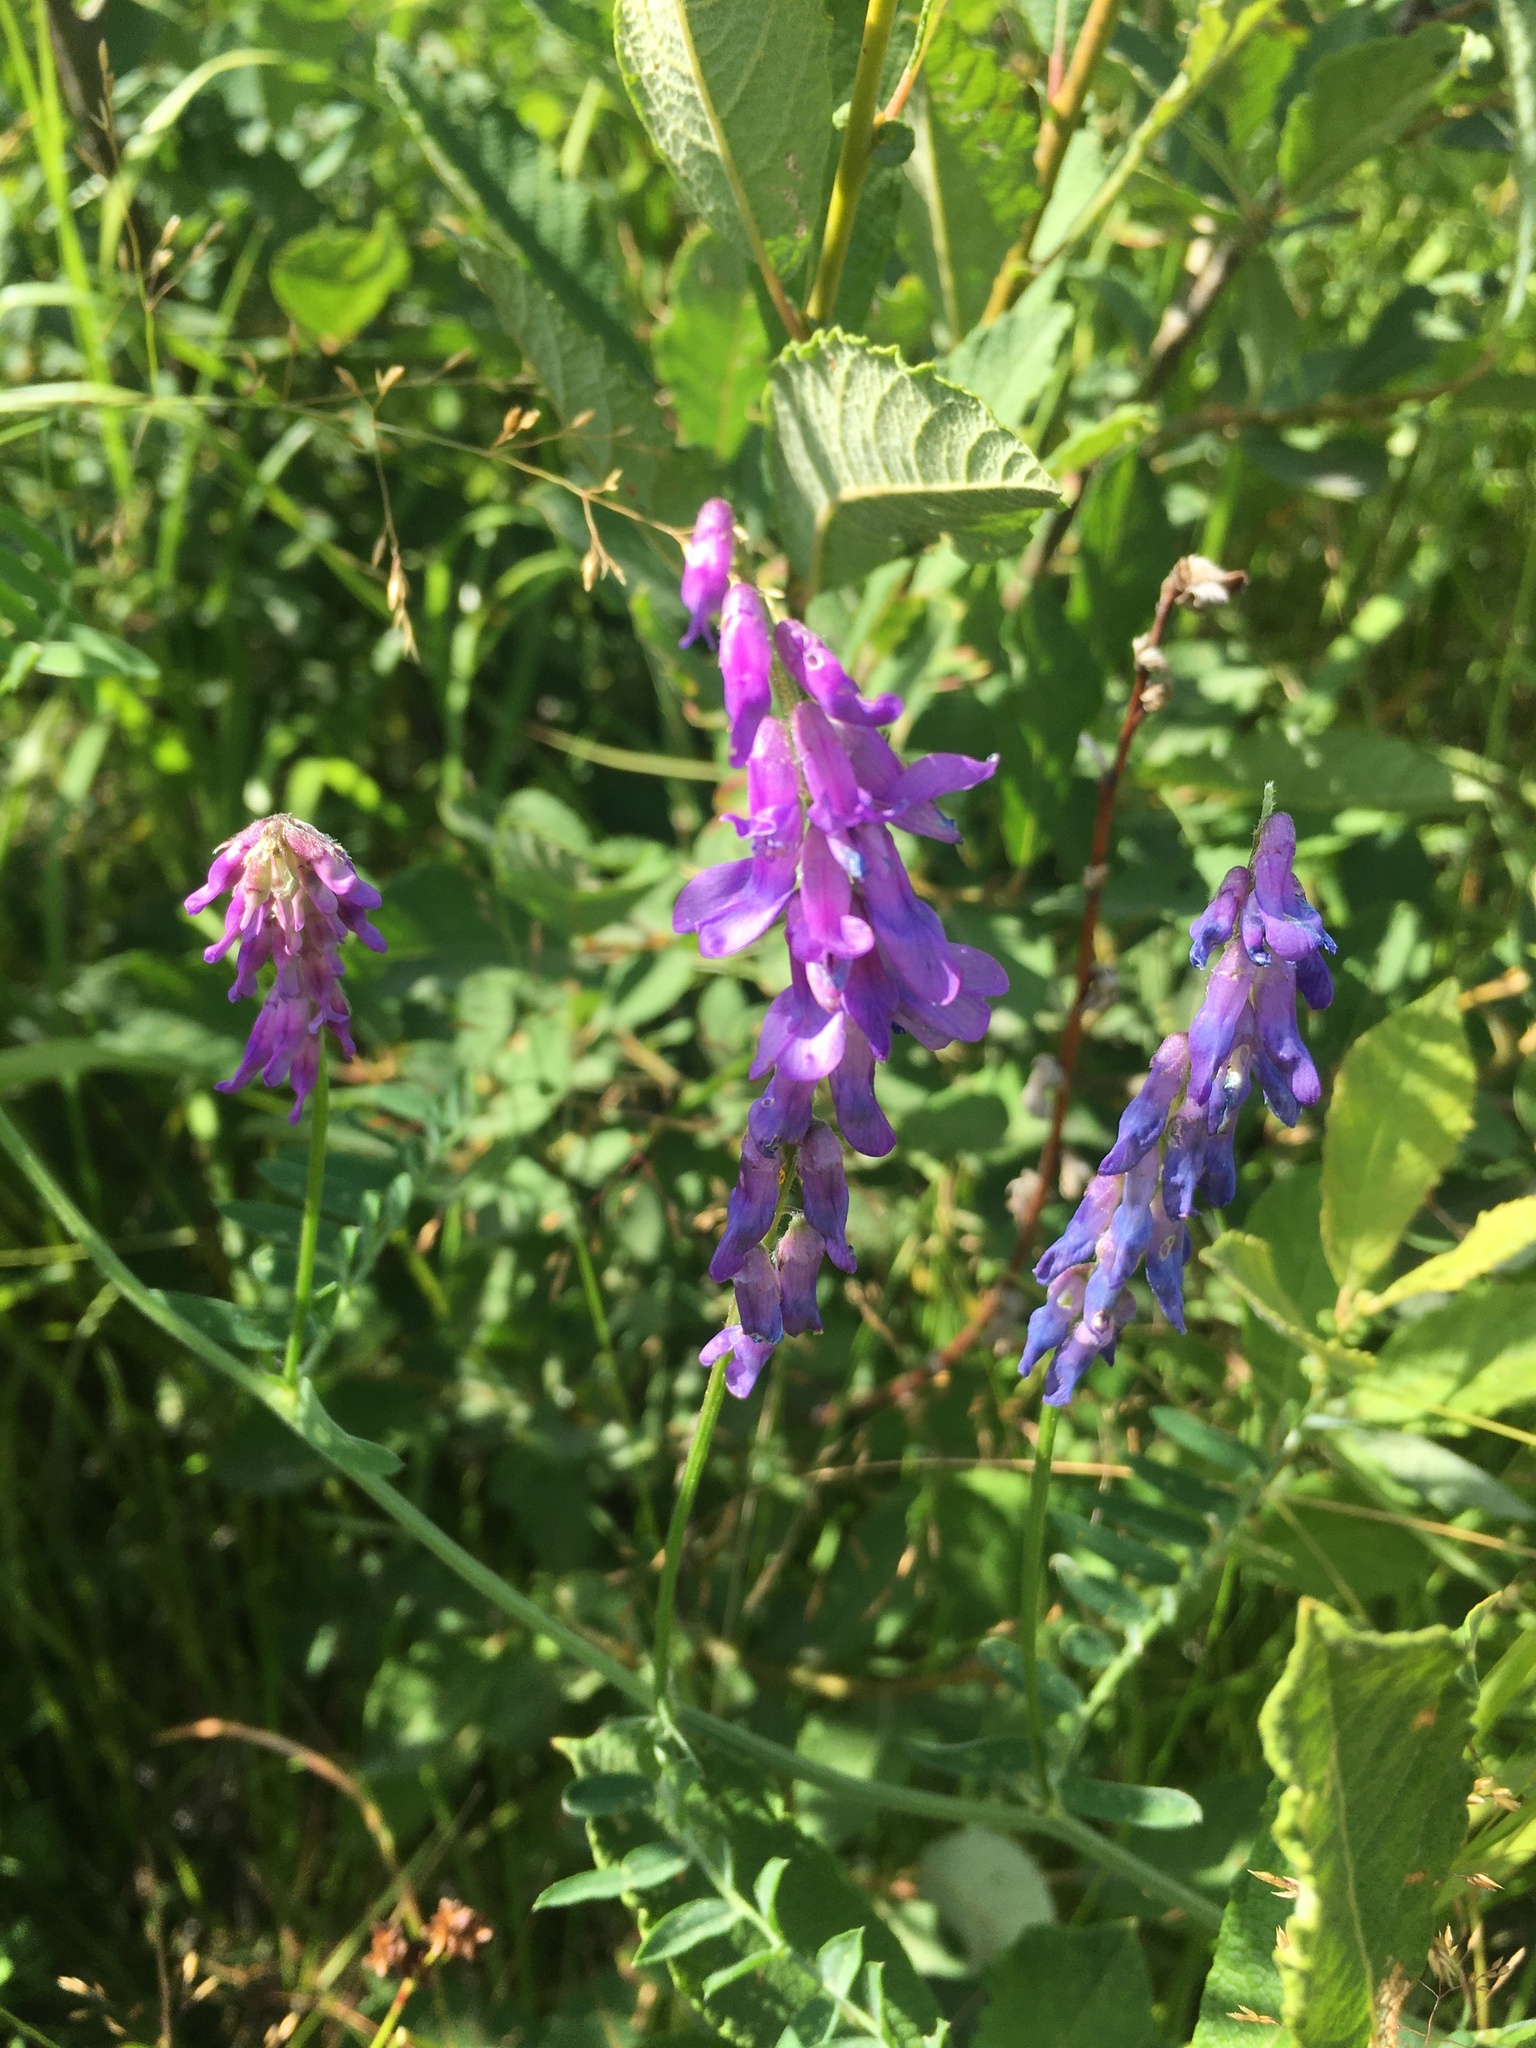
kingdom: Plantae
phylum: Tracheophyta
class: Magnoliopsida
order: Fabales
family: Fabaceae
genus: Vicia
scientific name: Vicia cracca
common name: Bird vetch
